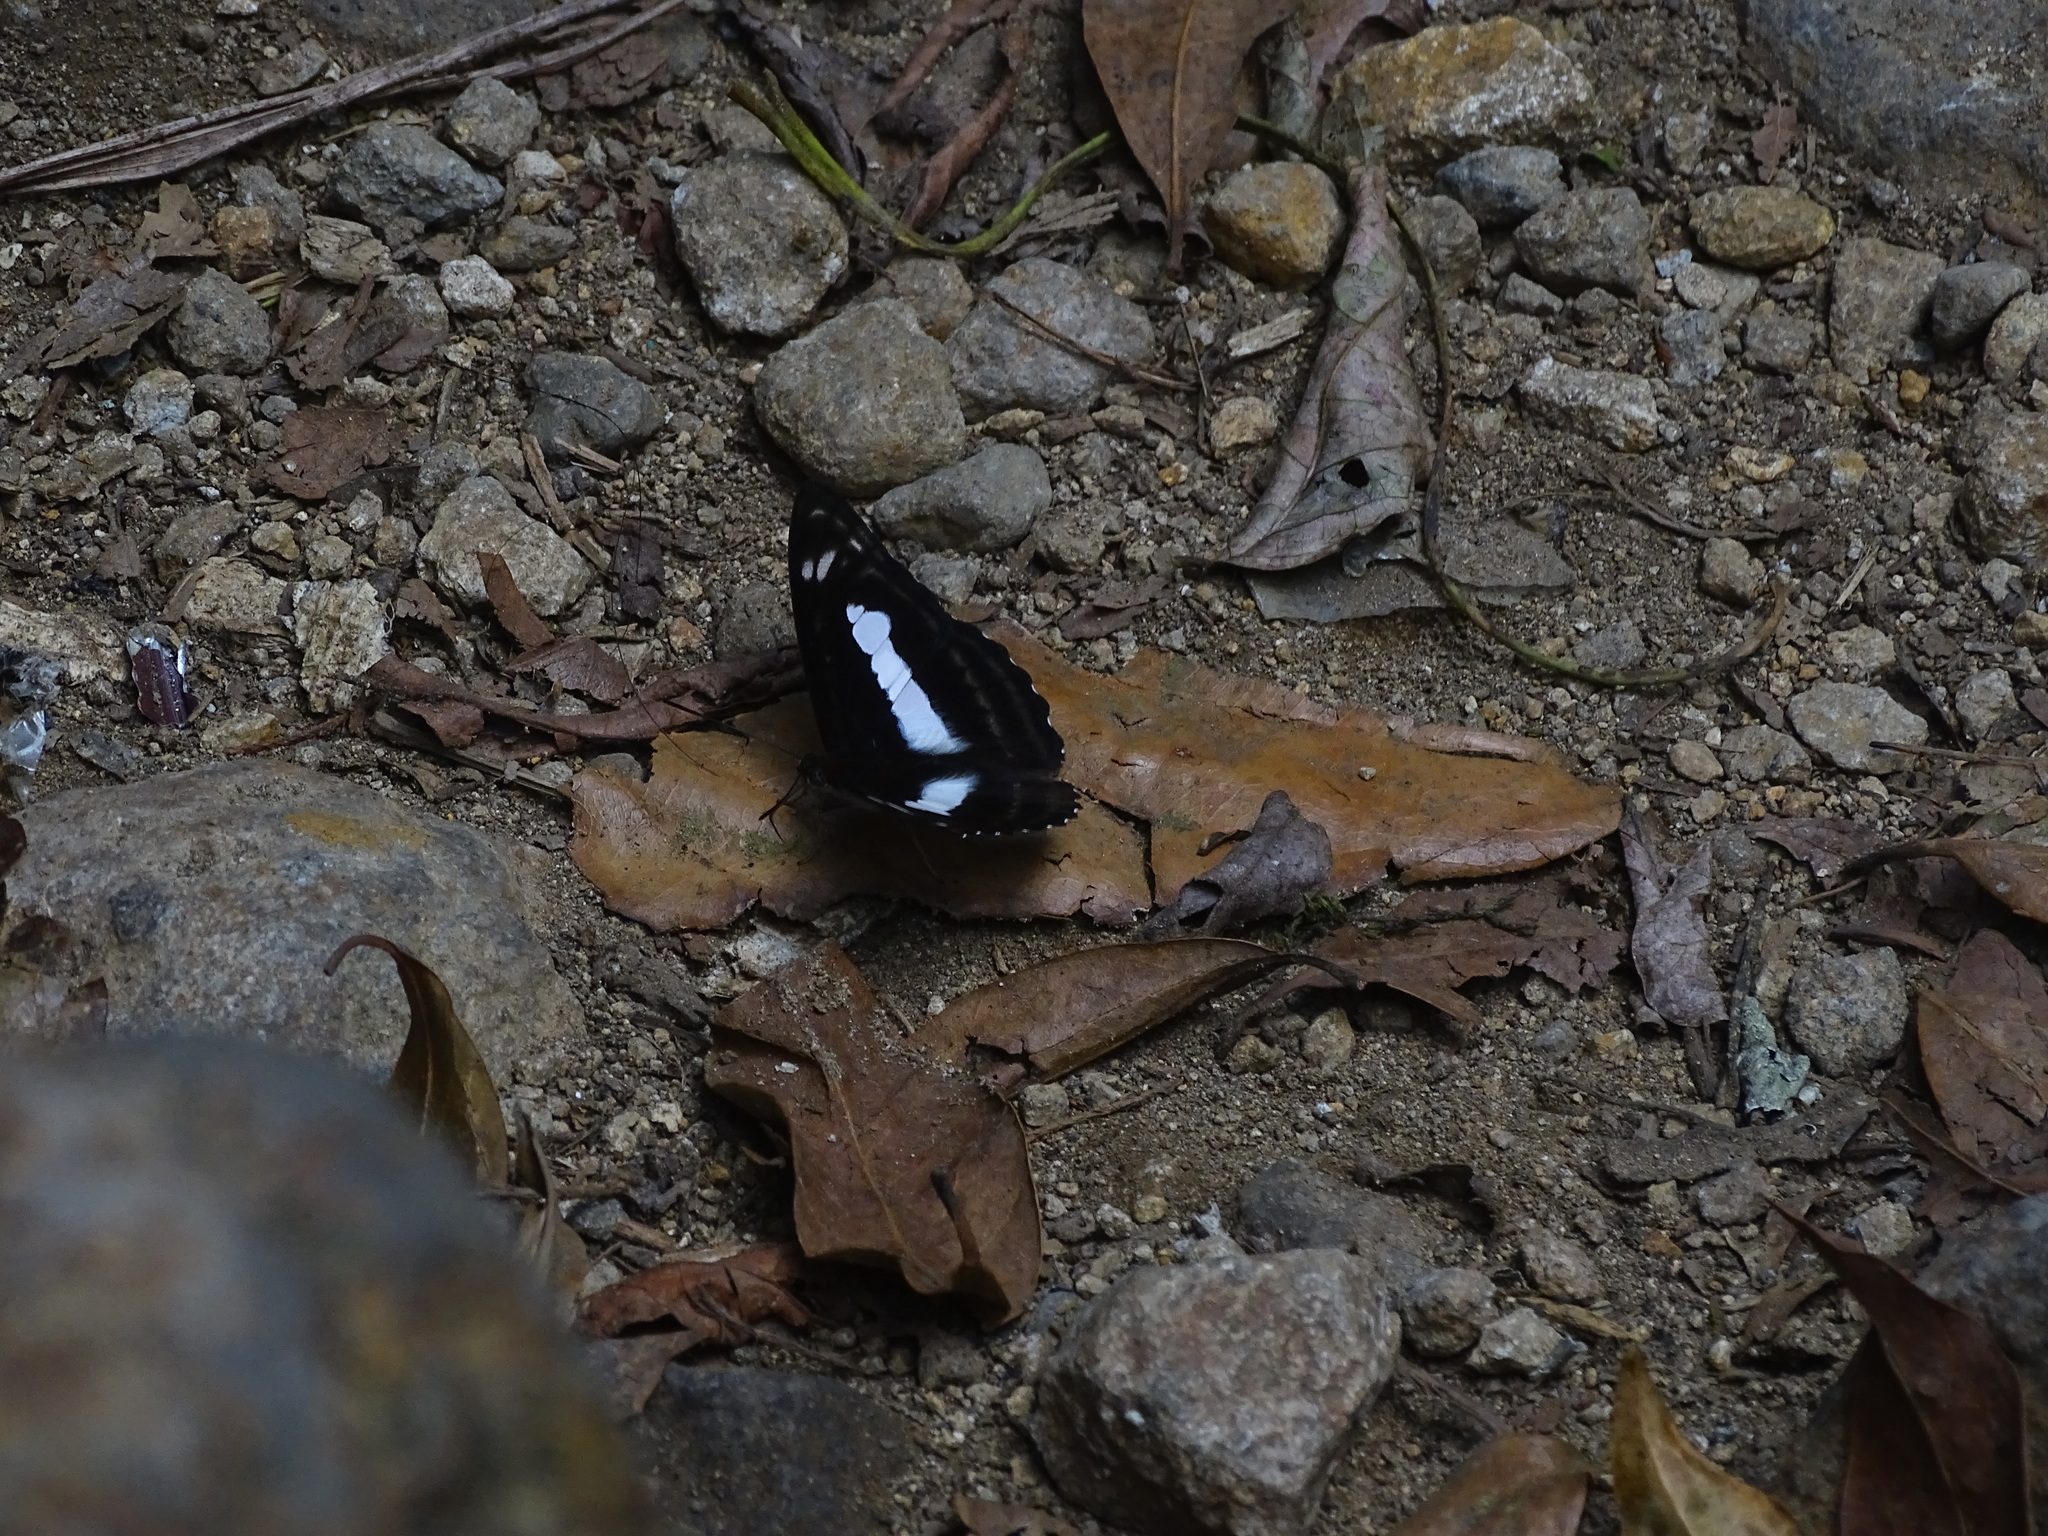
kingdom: Animalia
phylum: Arthropoda
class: Insecta
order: Lepidoptera
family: Nymphalidae
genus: Parathyma
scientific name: Parathyma selenophora
